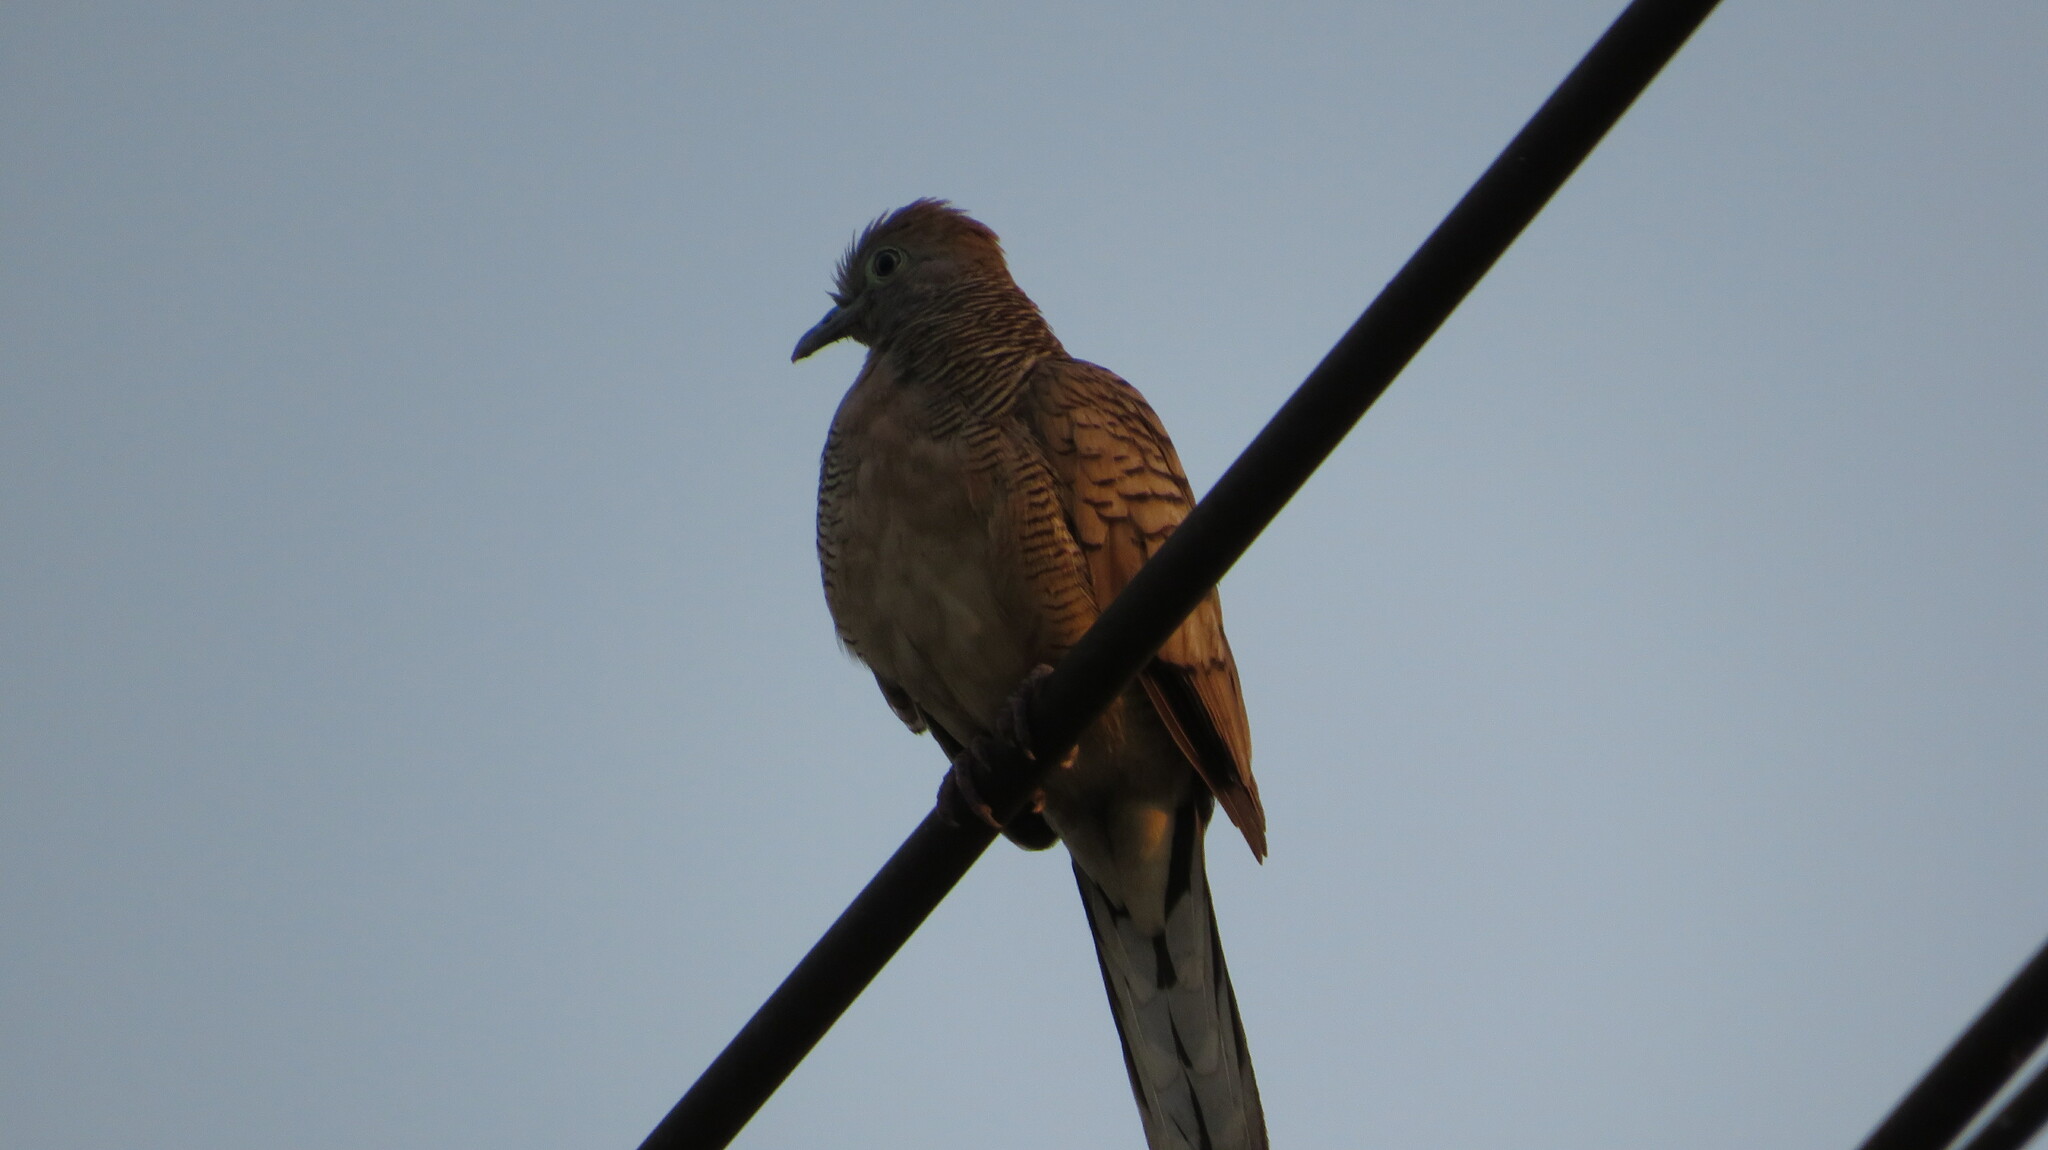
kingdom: Animalia
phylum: Chordata
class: Aves
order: Columbiformes
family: Columbidae
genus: Geopelia
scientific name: Geopelia striata
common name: Zebra dove
